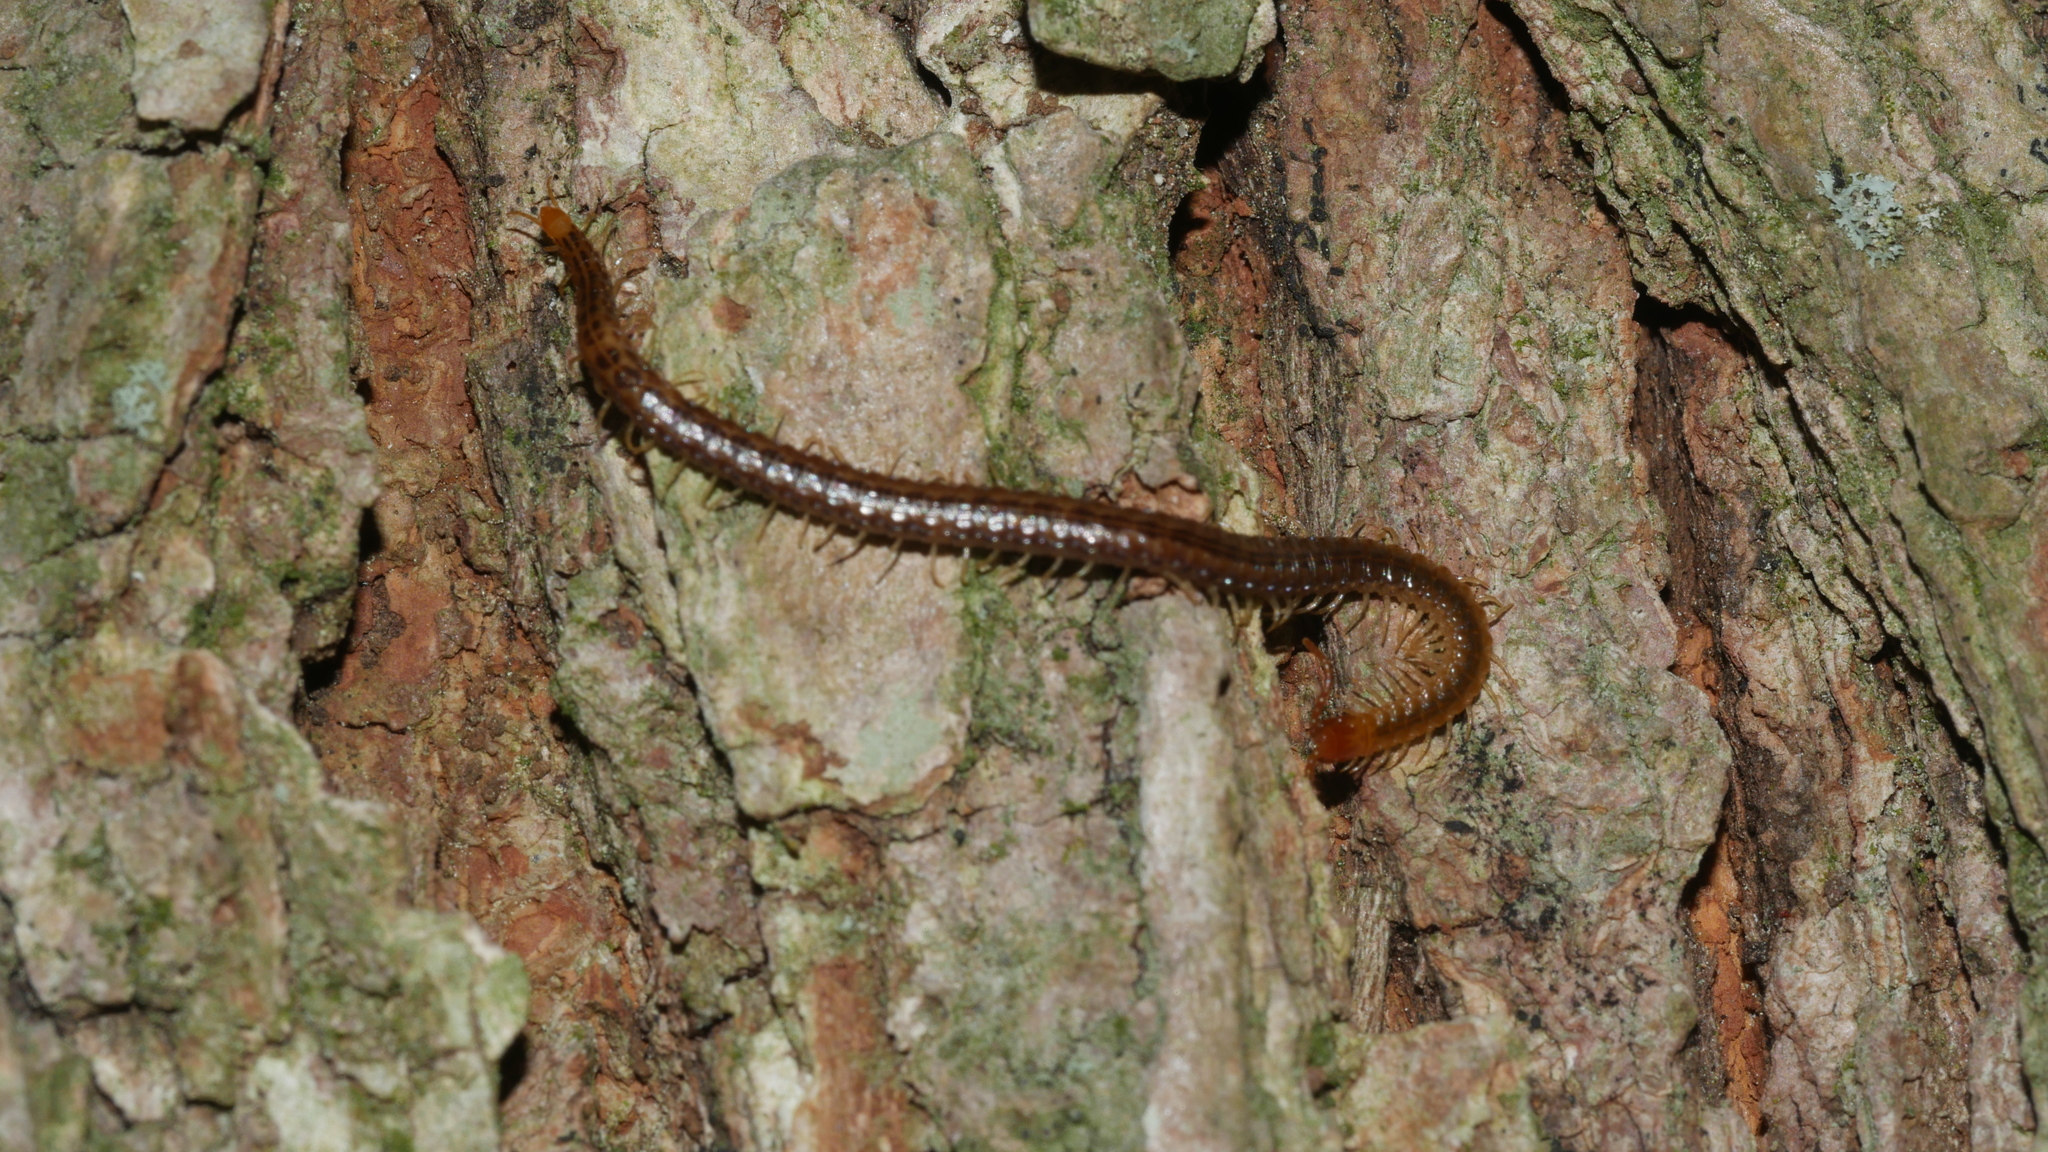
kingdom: Animalia
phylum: Arthropoda
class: Chilopoda
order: Geophilomorpha
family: Geophilidae
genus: Geophilus
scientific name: Geophilus vittatus
